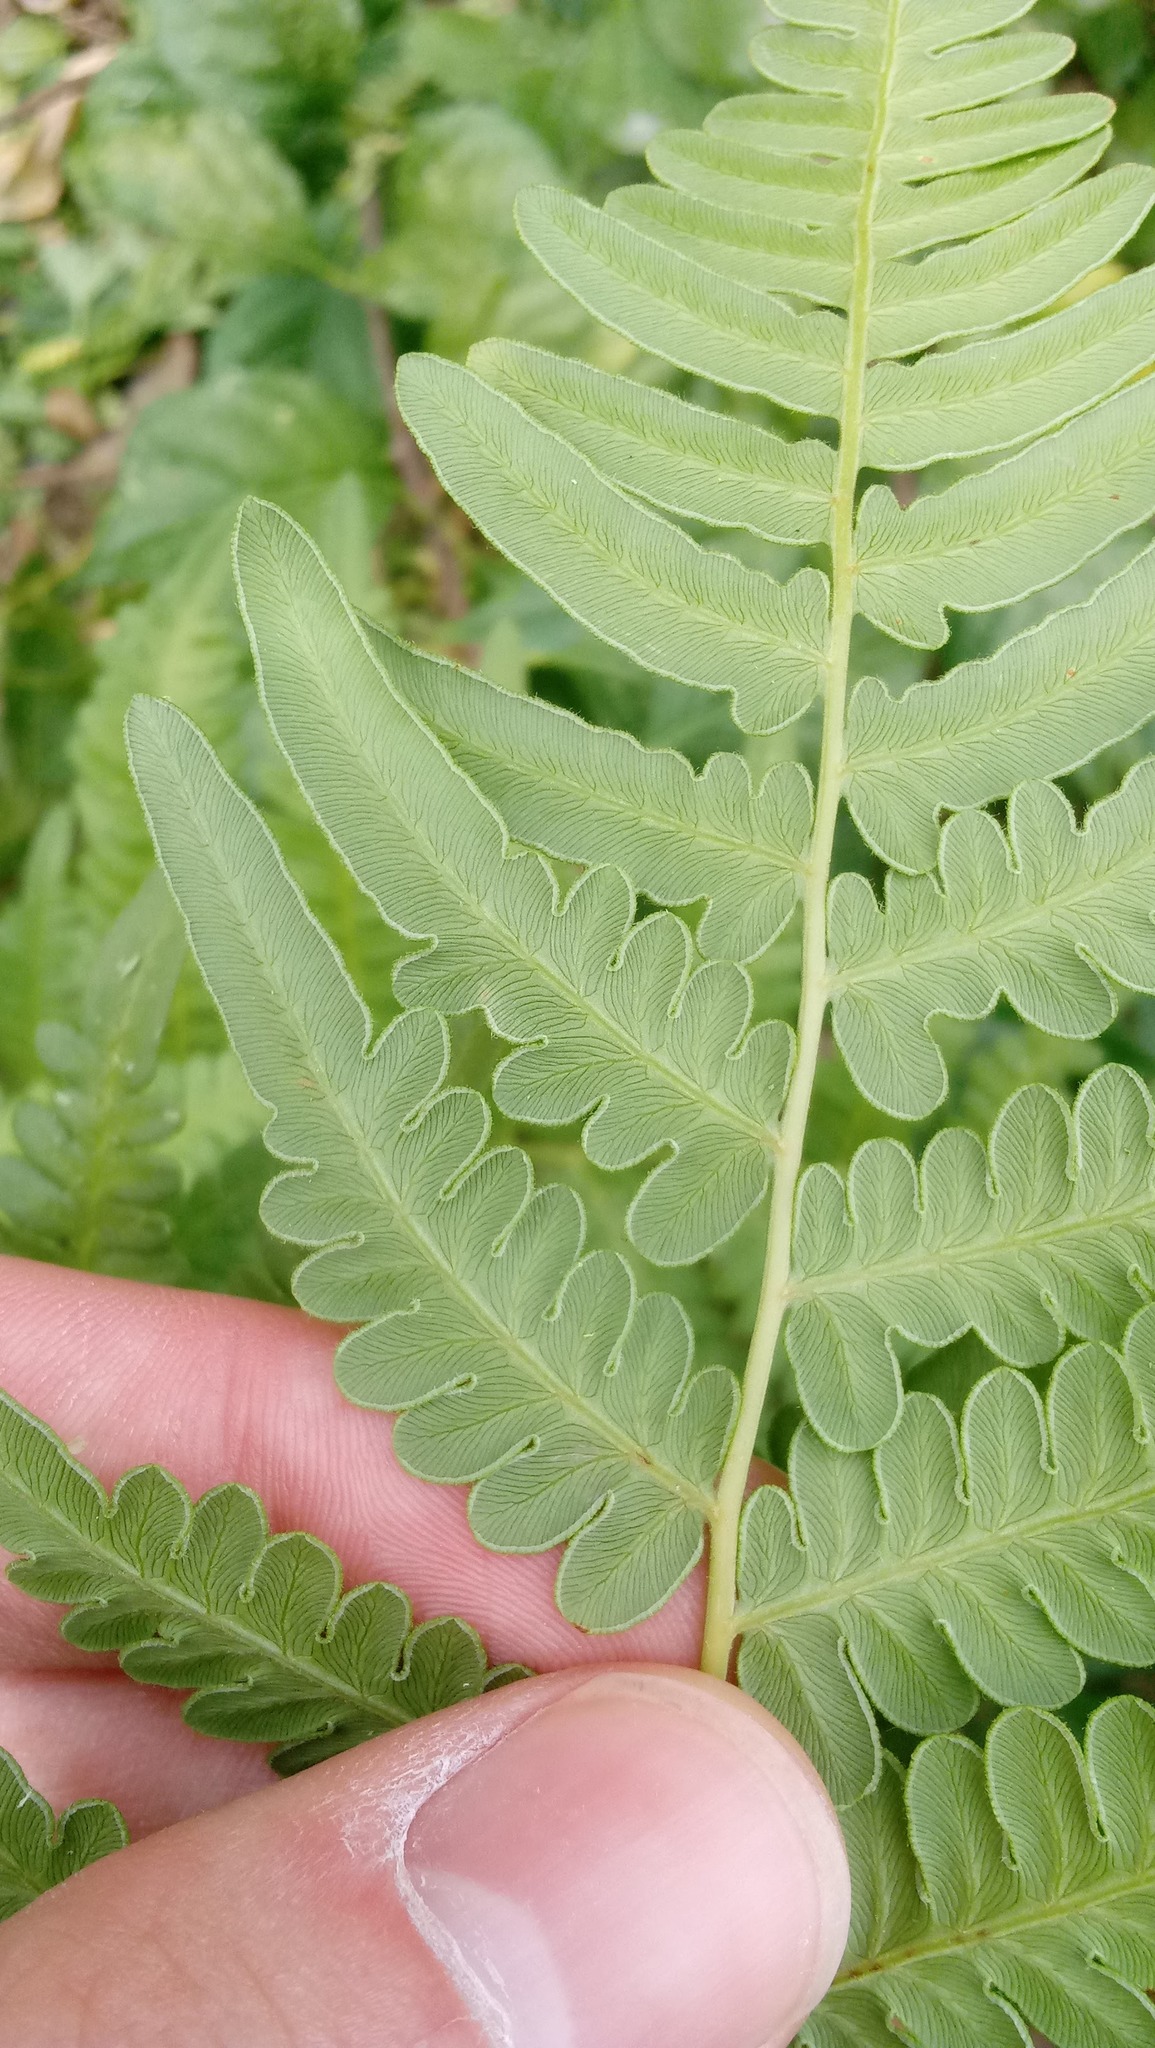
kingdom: Plantae
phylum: Tracheophyta
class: Polypodiopsida
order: Polypodiales
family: Dennstaedtiaceae
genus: Pteridium
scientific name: Pteridium aquilinum
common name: Bracken
